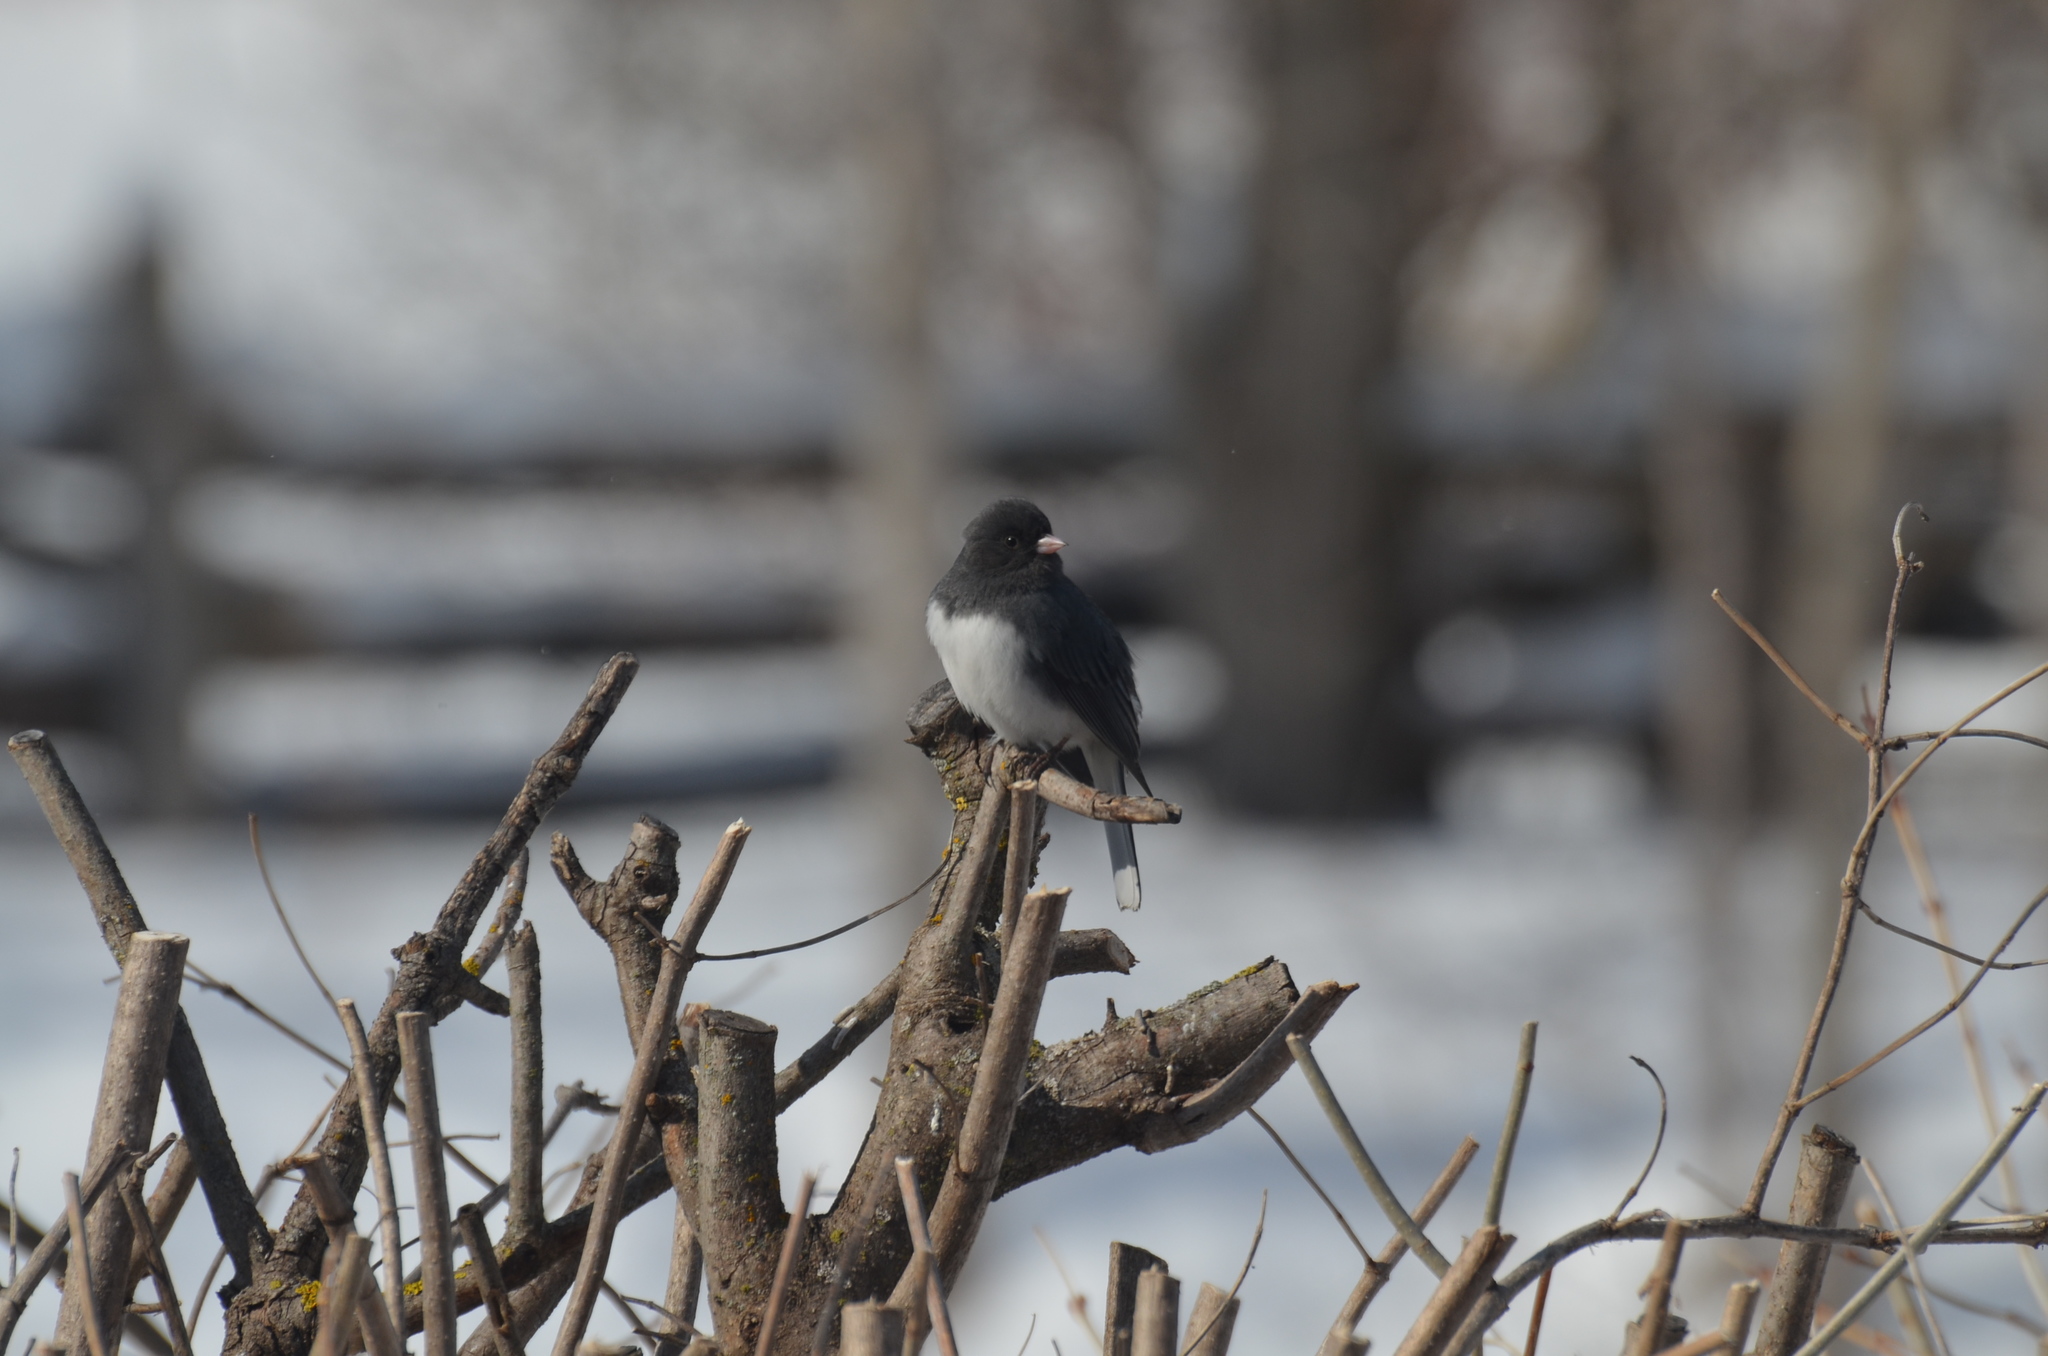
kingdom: Animalia
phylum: Chordata
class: Aves
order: Passeriformes
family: Passerellidae
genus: Junco
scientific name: Junco hyemalis
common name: Dark-eyed junco
